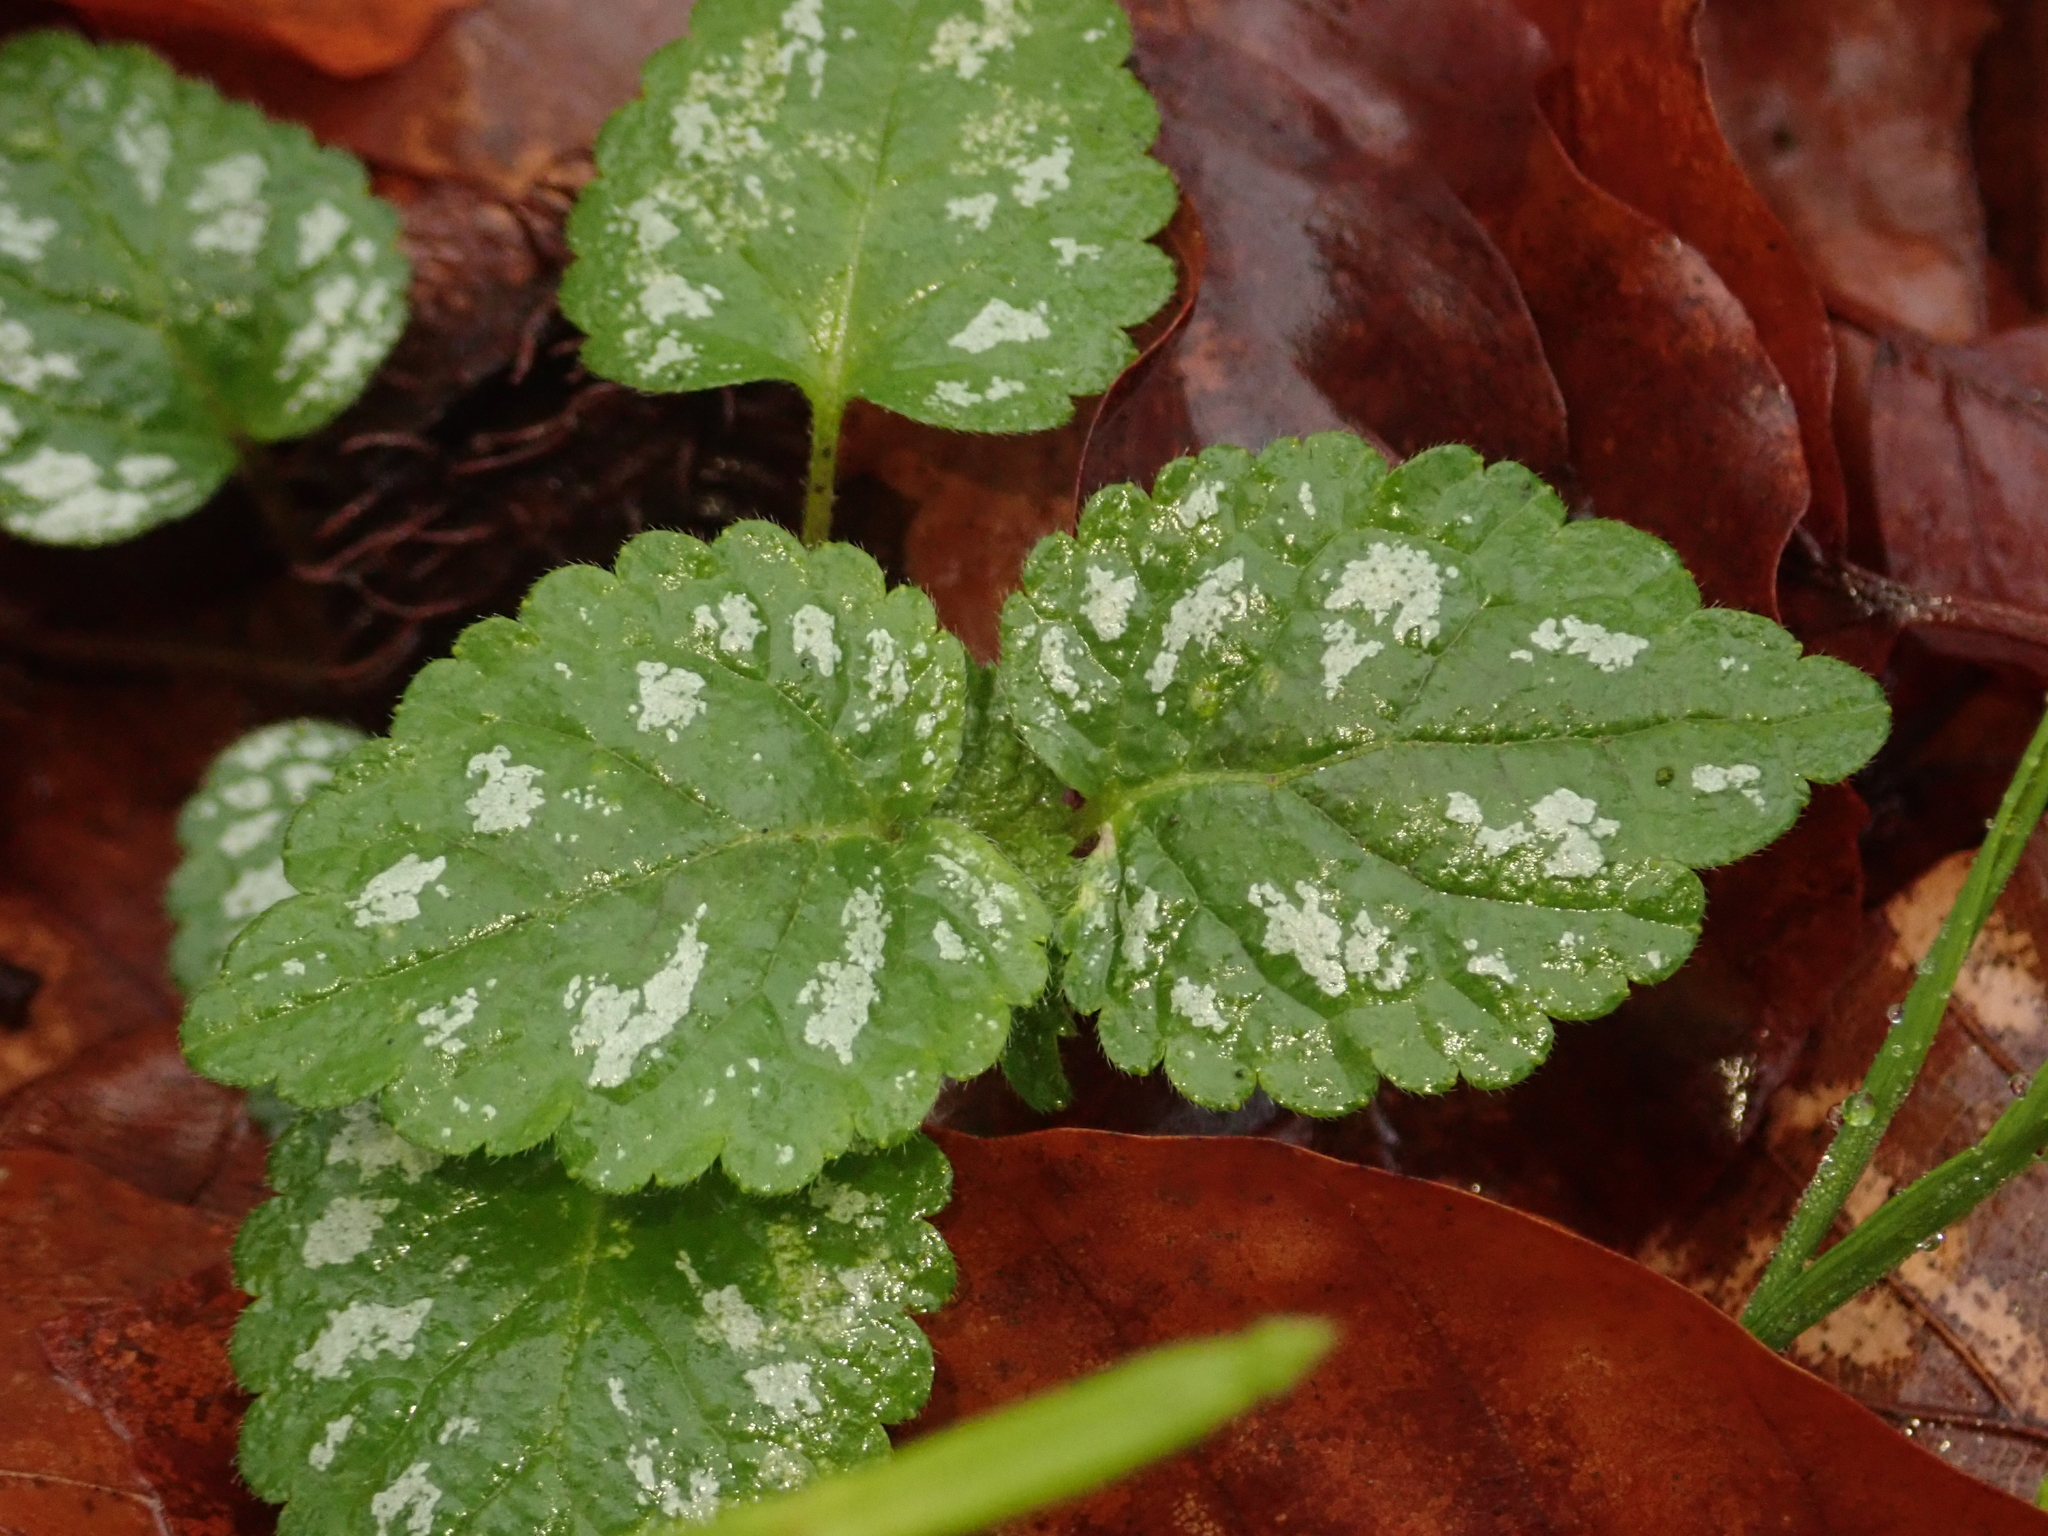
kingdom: Plantae
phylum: Tracheophyta
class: Magnoliopsida
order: Lamiales
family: Lamiaceae
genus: Lamium
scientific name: Lamium galeobdolon
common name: Yellow archangel
